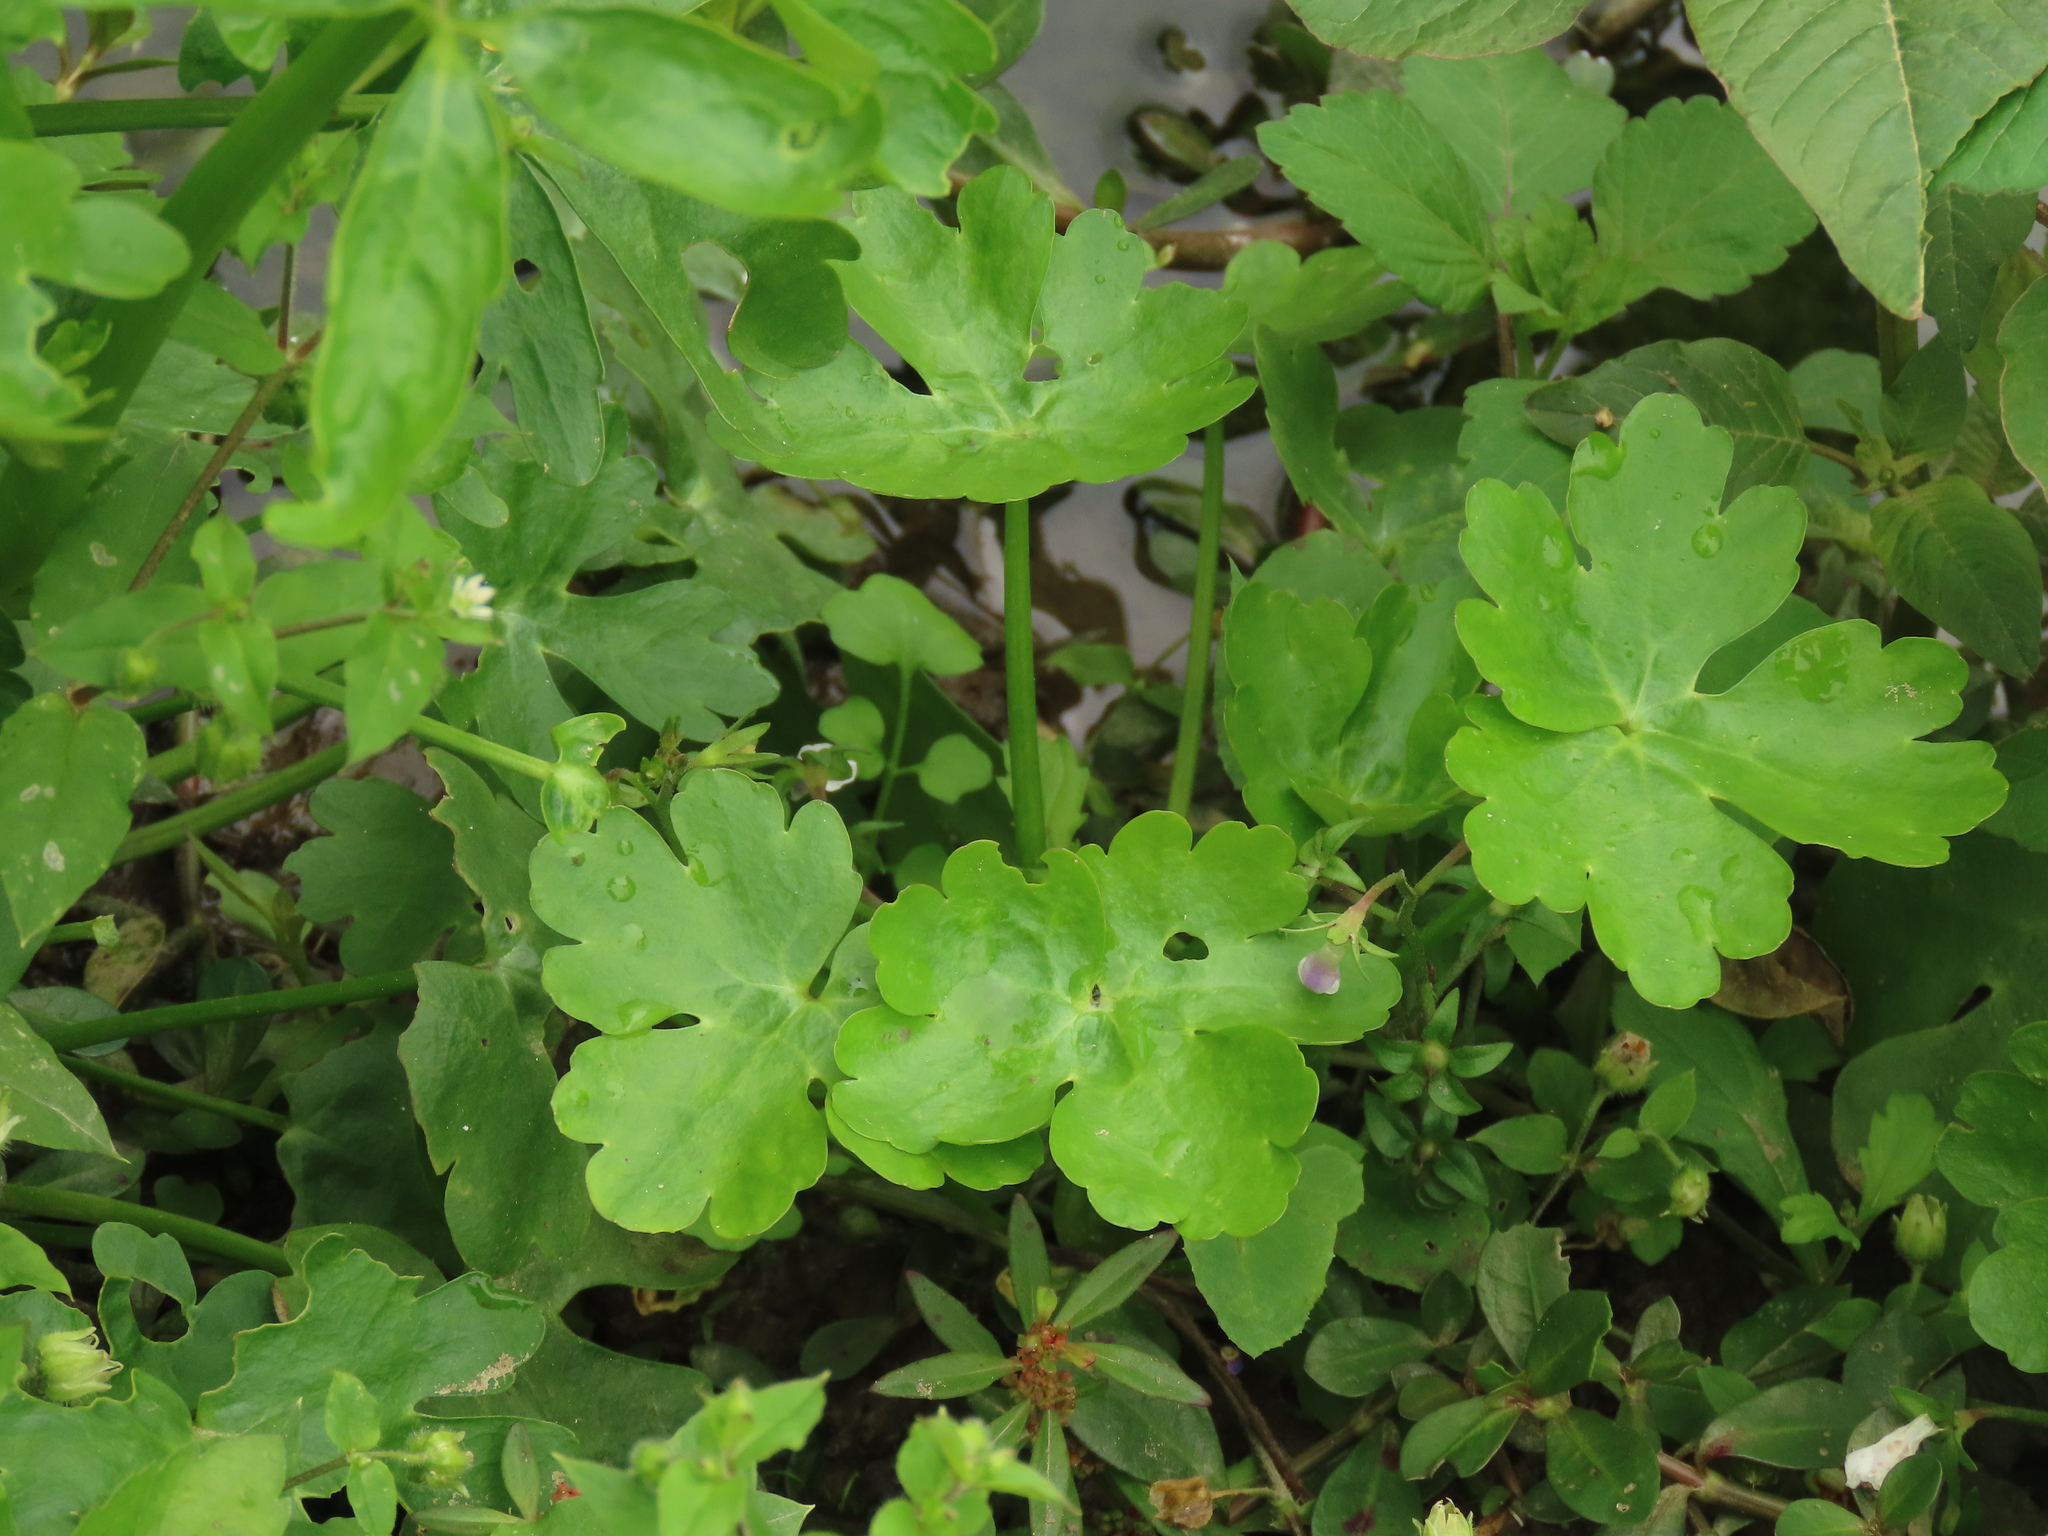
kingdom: Plantae
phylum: Tracheophyta
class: Magnoliopsida
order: Ranunculales
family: Ranunculaceae
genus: Ranunculus
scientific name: Ranunculus sceleratus
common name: Celery-leaved buttercup
